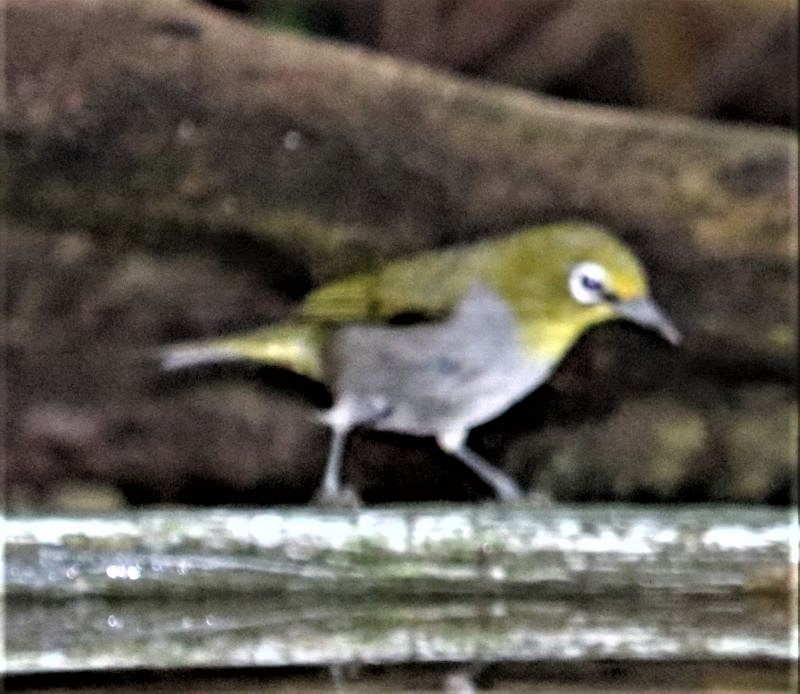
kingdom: Animalia
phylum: Chordata
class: Aves
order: Passeriformes
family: Zosteropidae
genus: Zosterops
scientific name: Zosterops virens
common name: Cape white-eye
